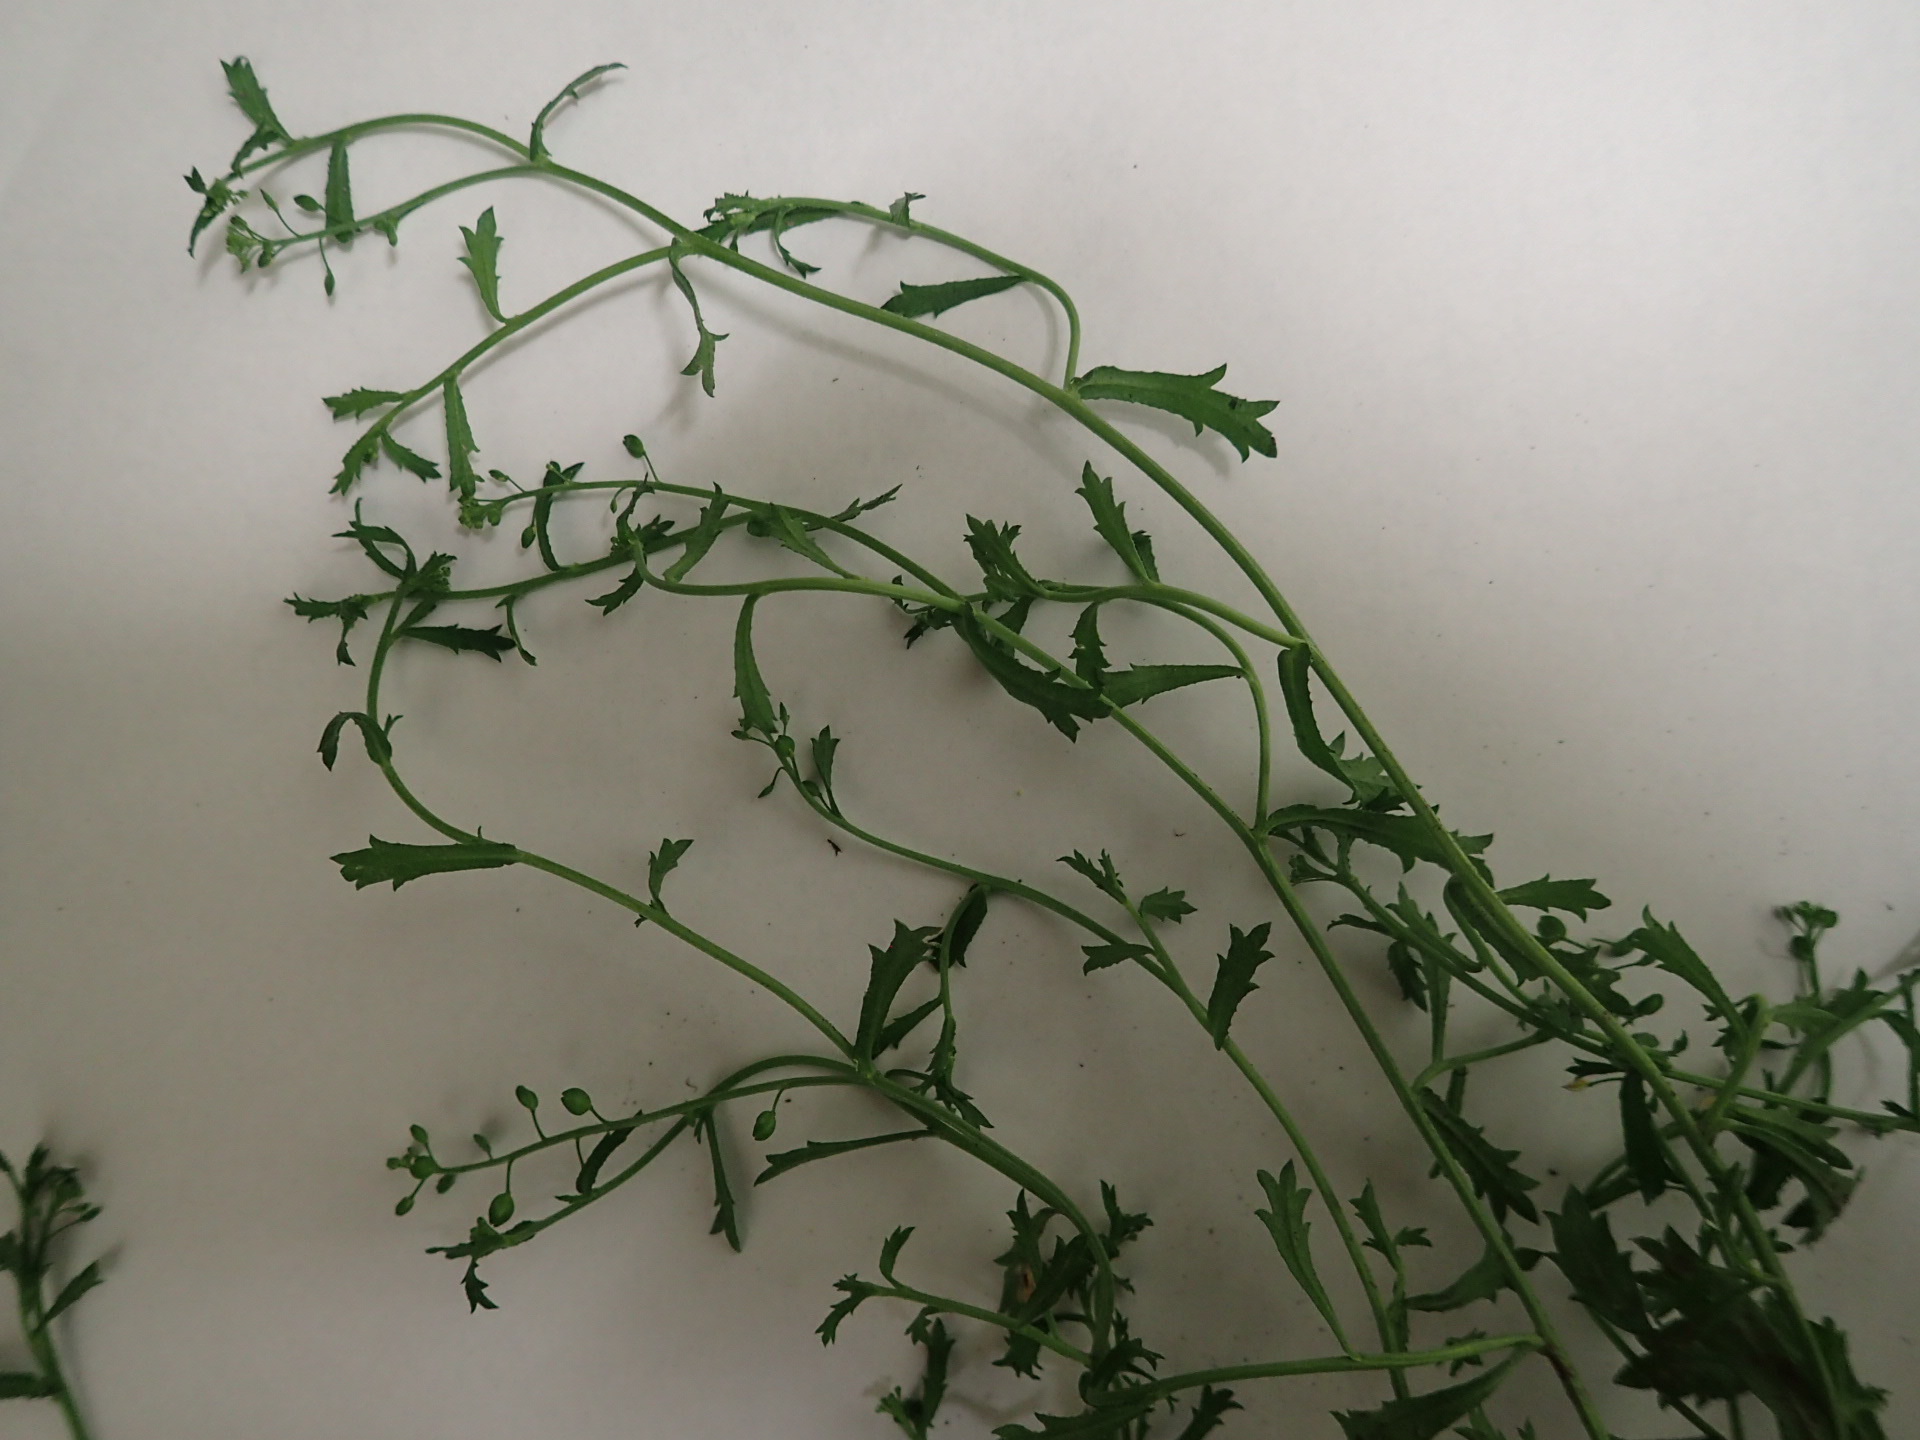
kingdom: Plantae
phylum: Tracheophyta
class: Magnoliopsida
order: Brassicales
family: Brassicaceae
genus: Lepidium
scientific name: Lepidium desvauxii
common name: Bushy pepperwort
